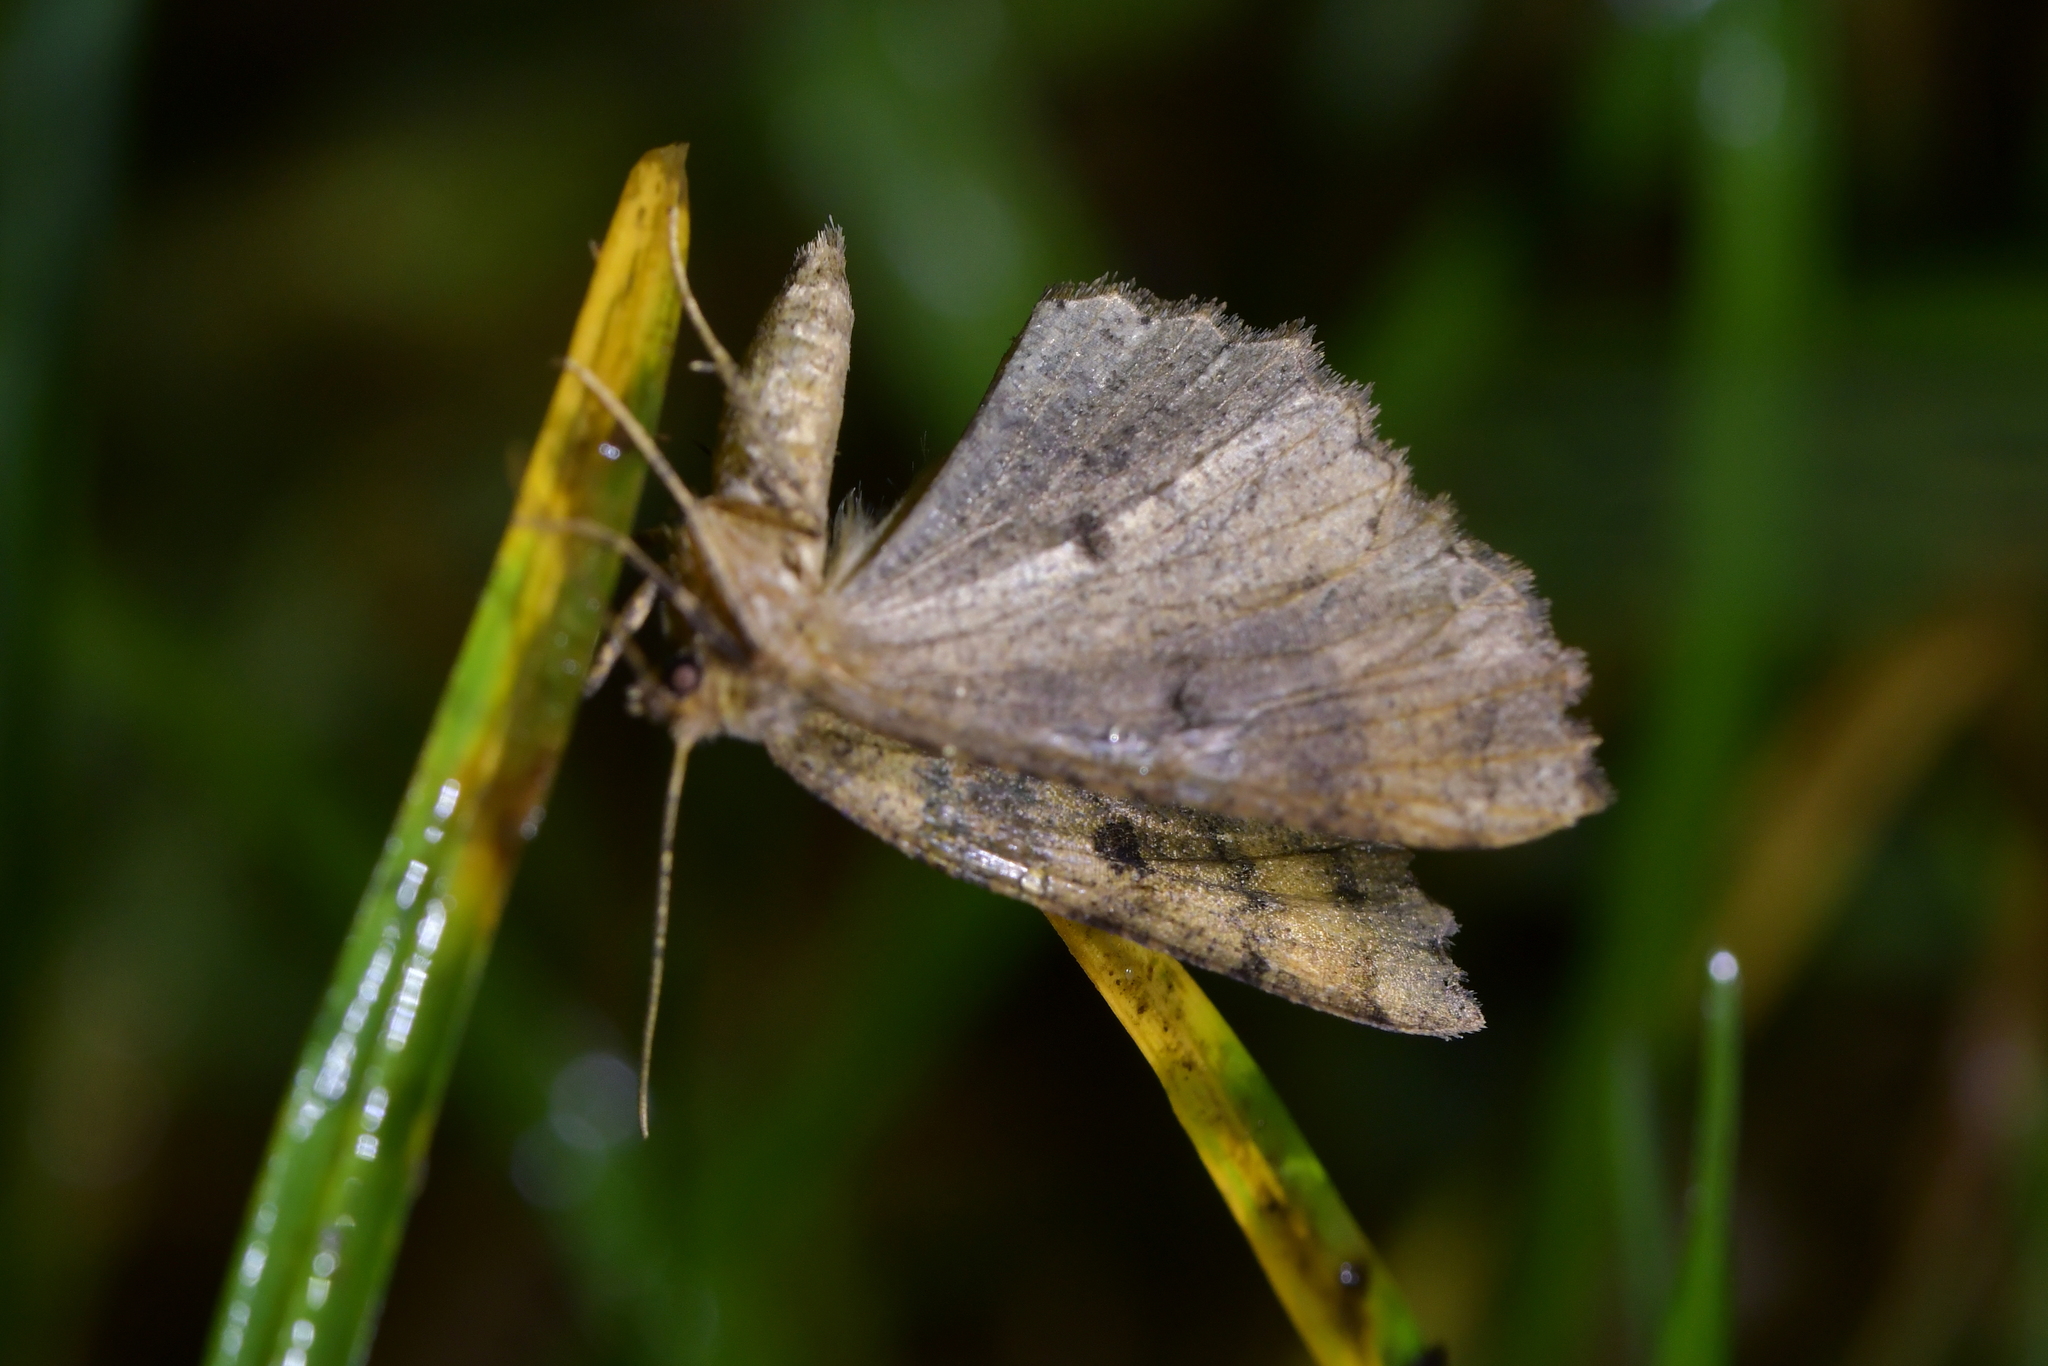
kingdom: Animalia
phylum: Arthropoda
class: Insecta
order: Lepidoptera
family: Geometridae
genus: Cleora
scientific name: Cleora scriptaria
